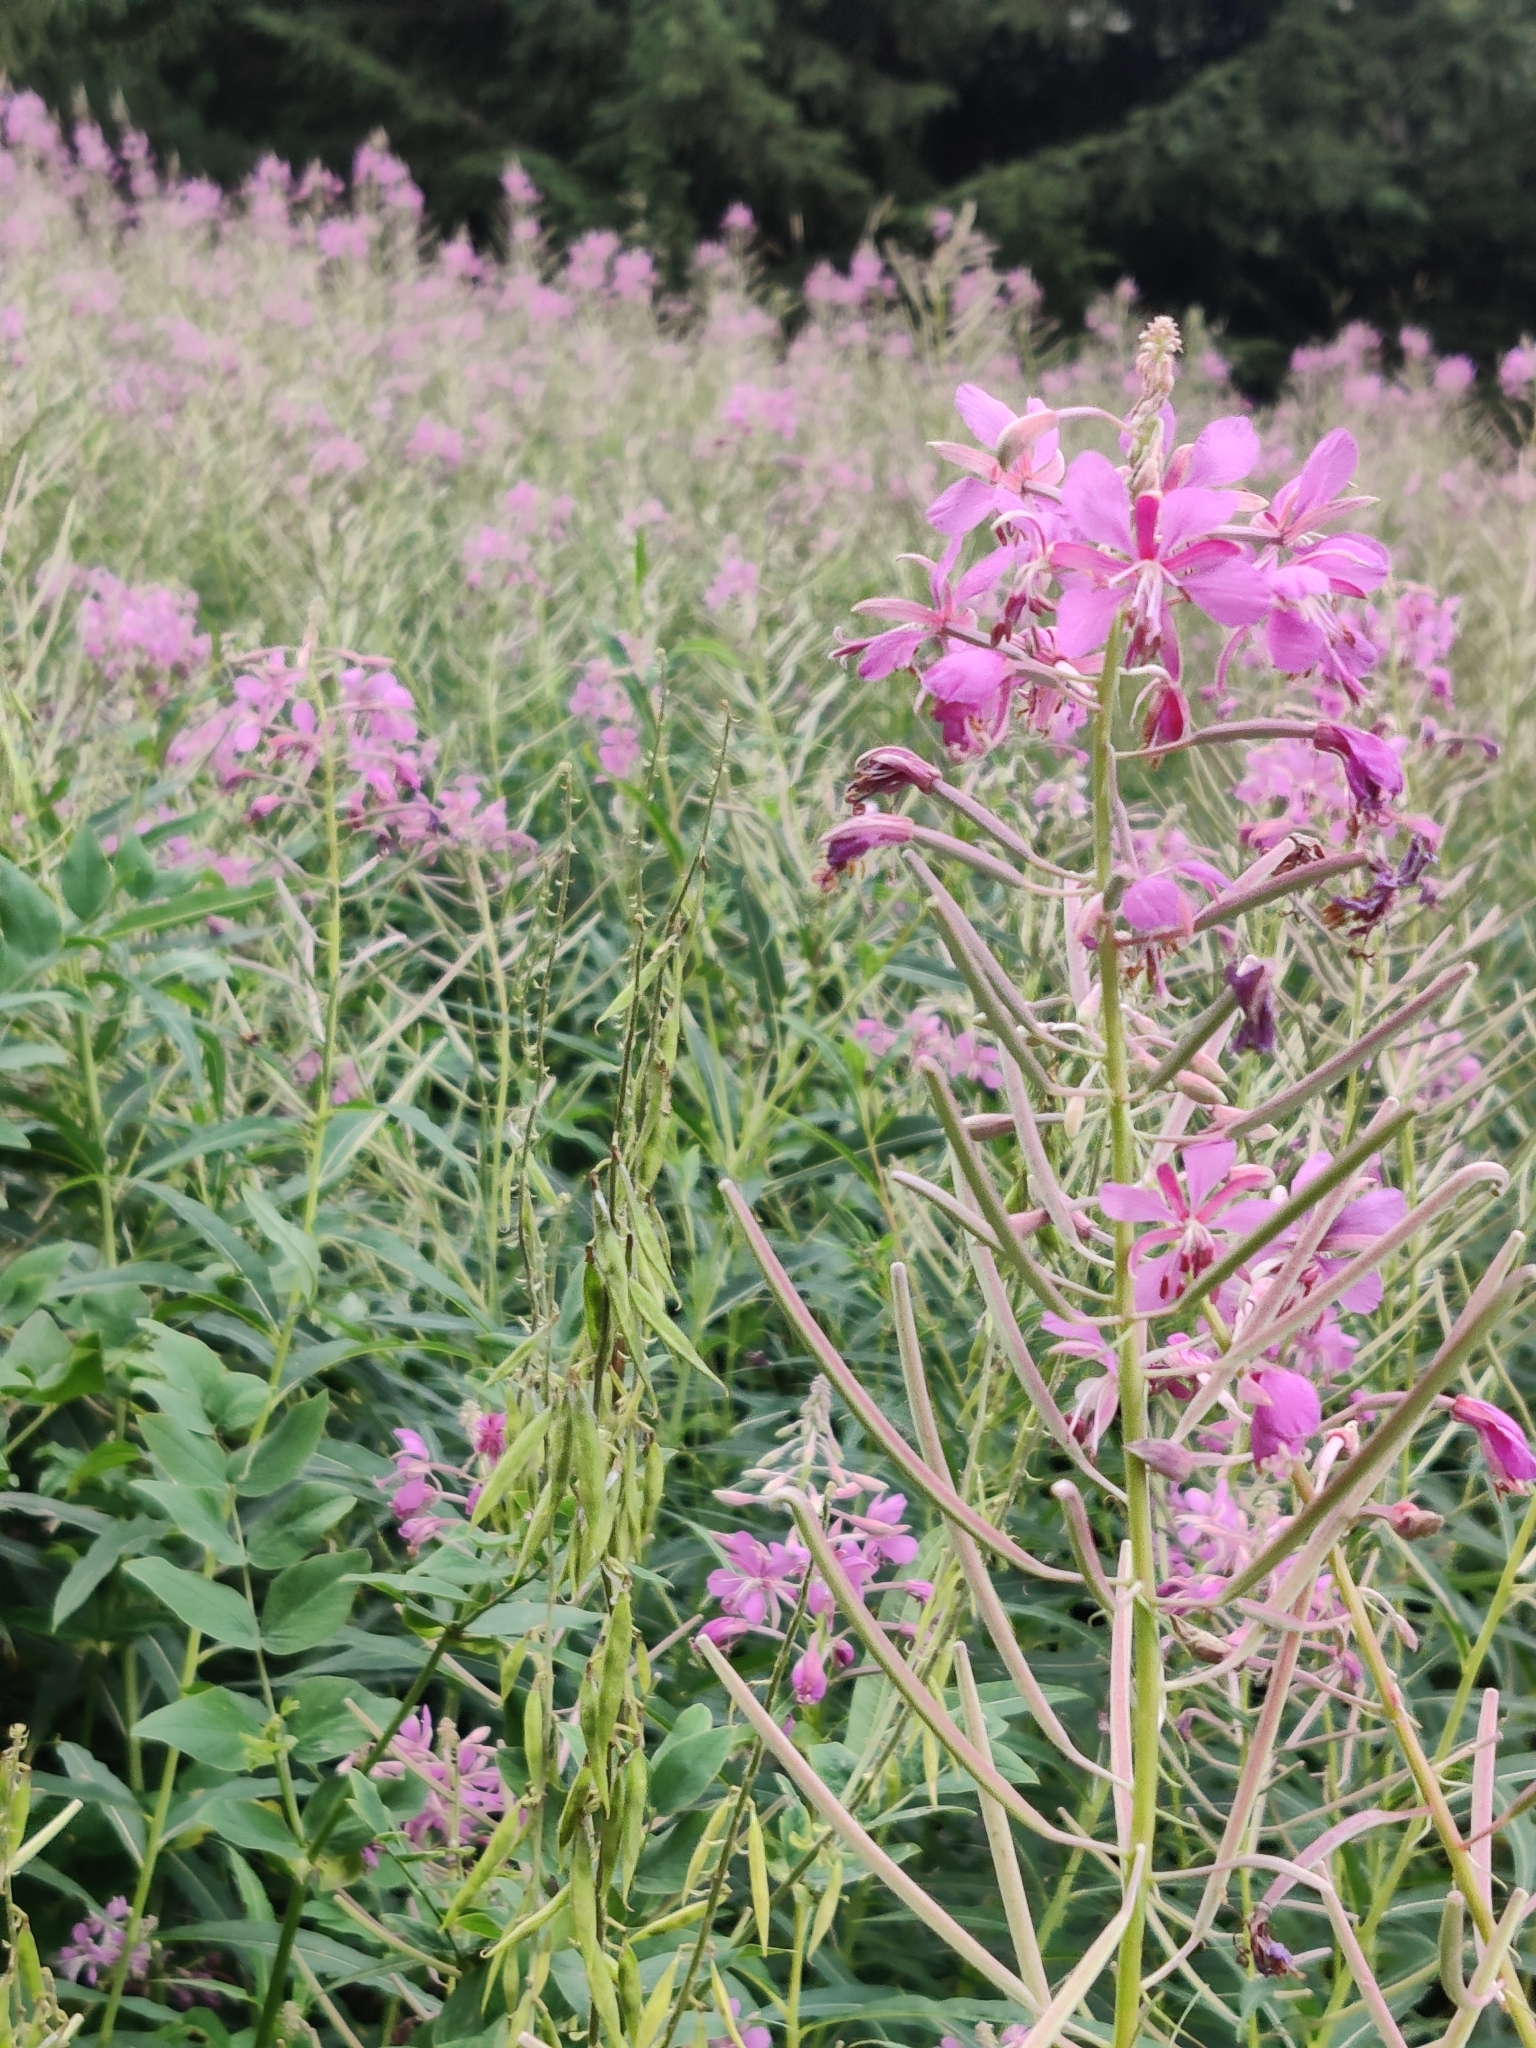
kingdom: Plantae
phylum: Tracheophyta
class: Magnoliopsida
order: Myrtales
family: Onagraceae
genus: Chamaenerion
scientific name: Chamaenerion angustifolium
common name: Fireweed
